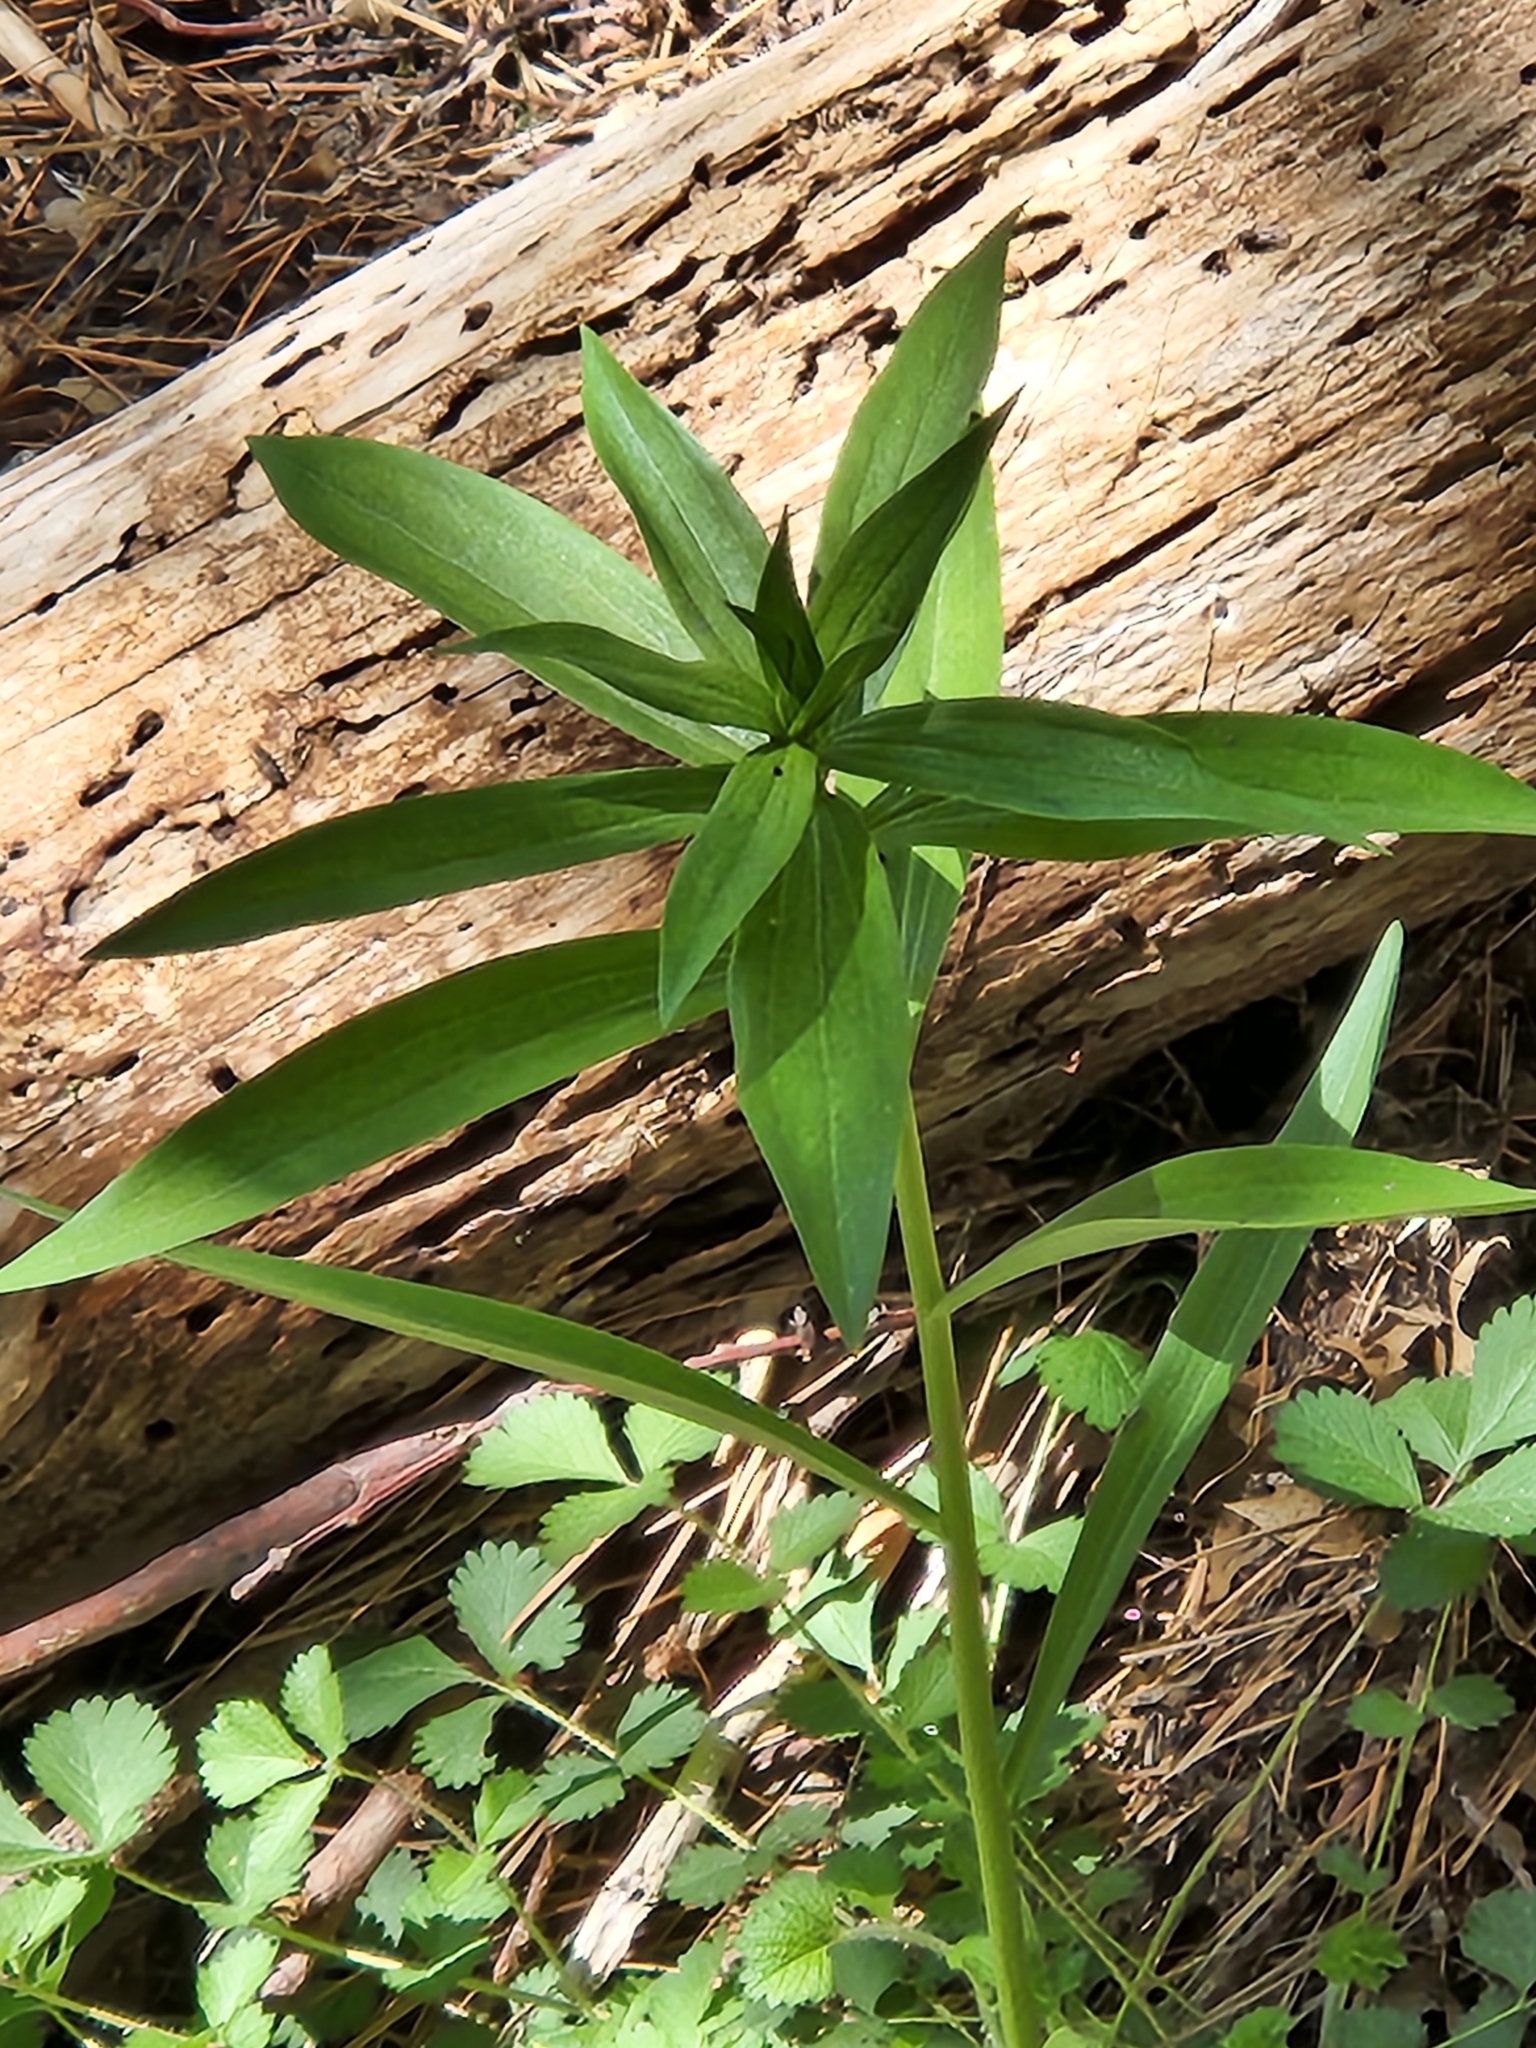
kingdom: Plantae
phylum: Tracheophyta
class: Liliopsida
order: Liliales
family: Liliaceae
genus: Lilium
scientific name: Lilium parryi
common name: Lemon lily
